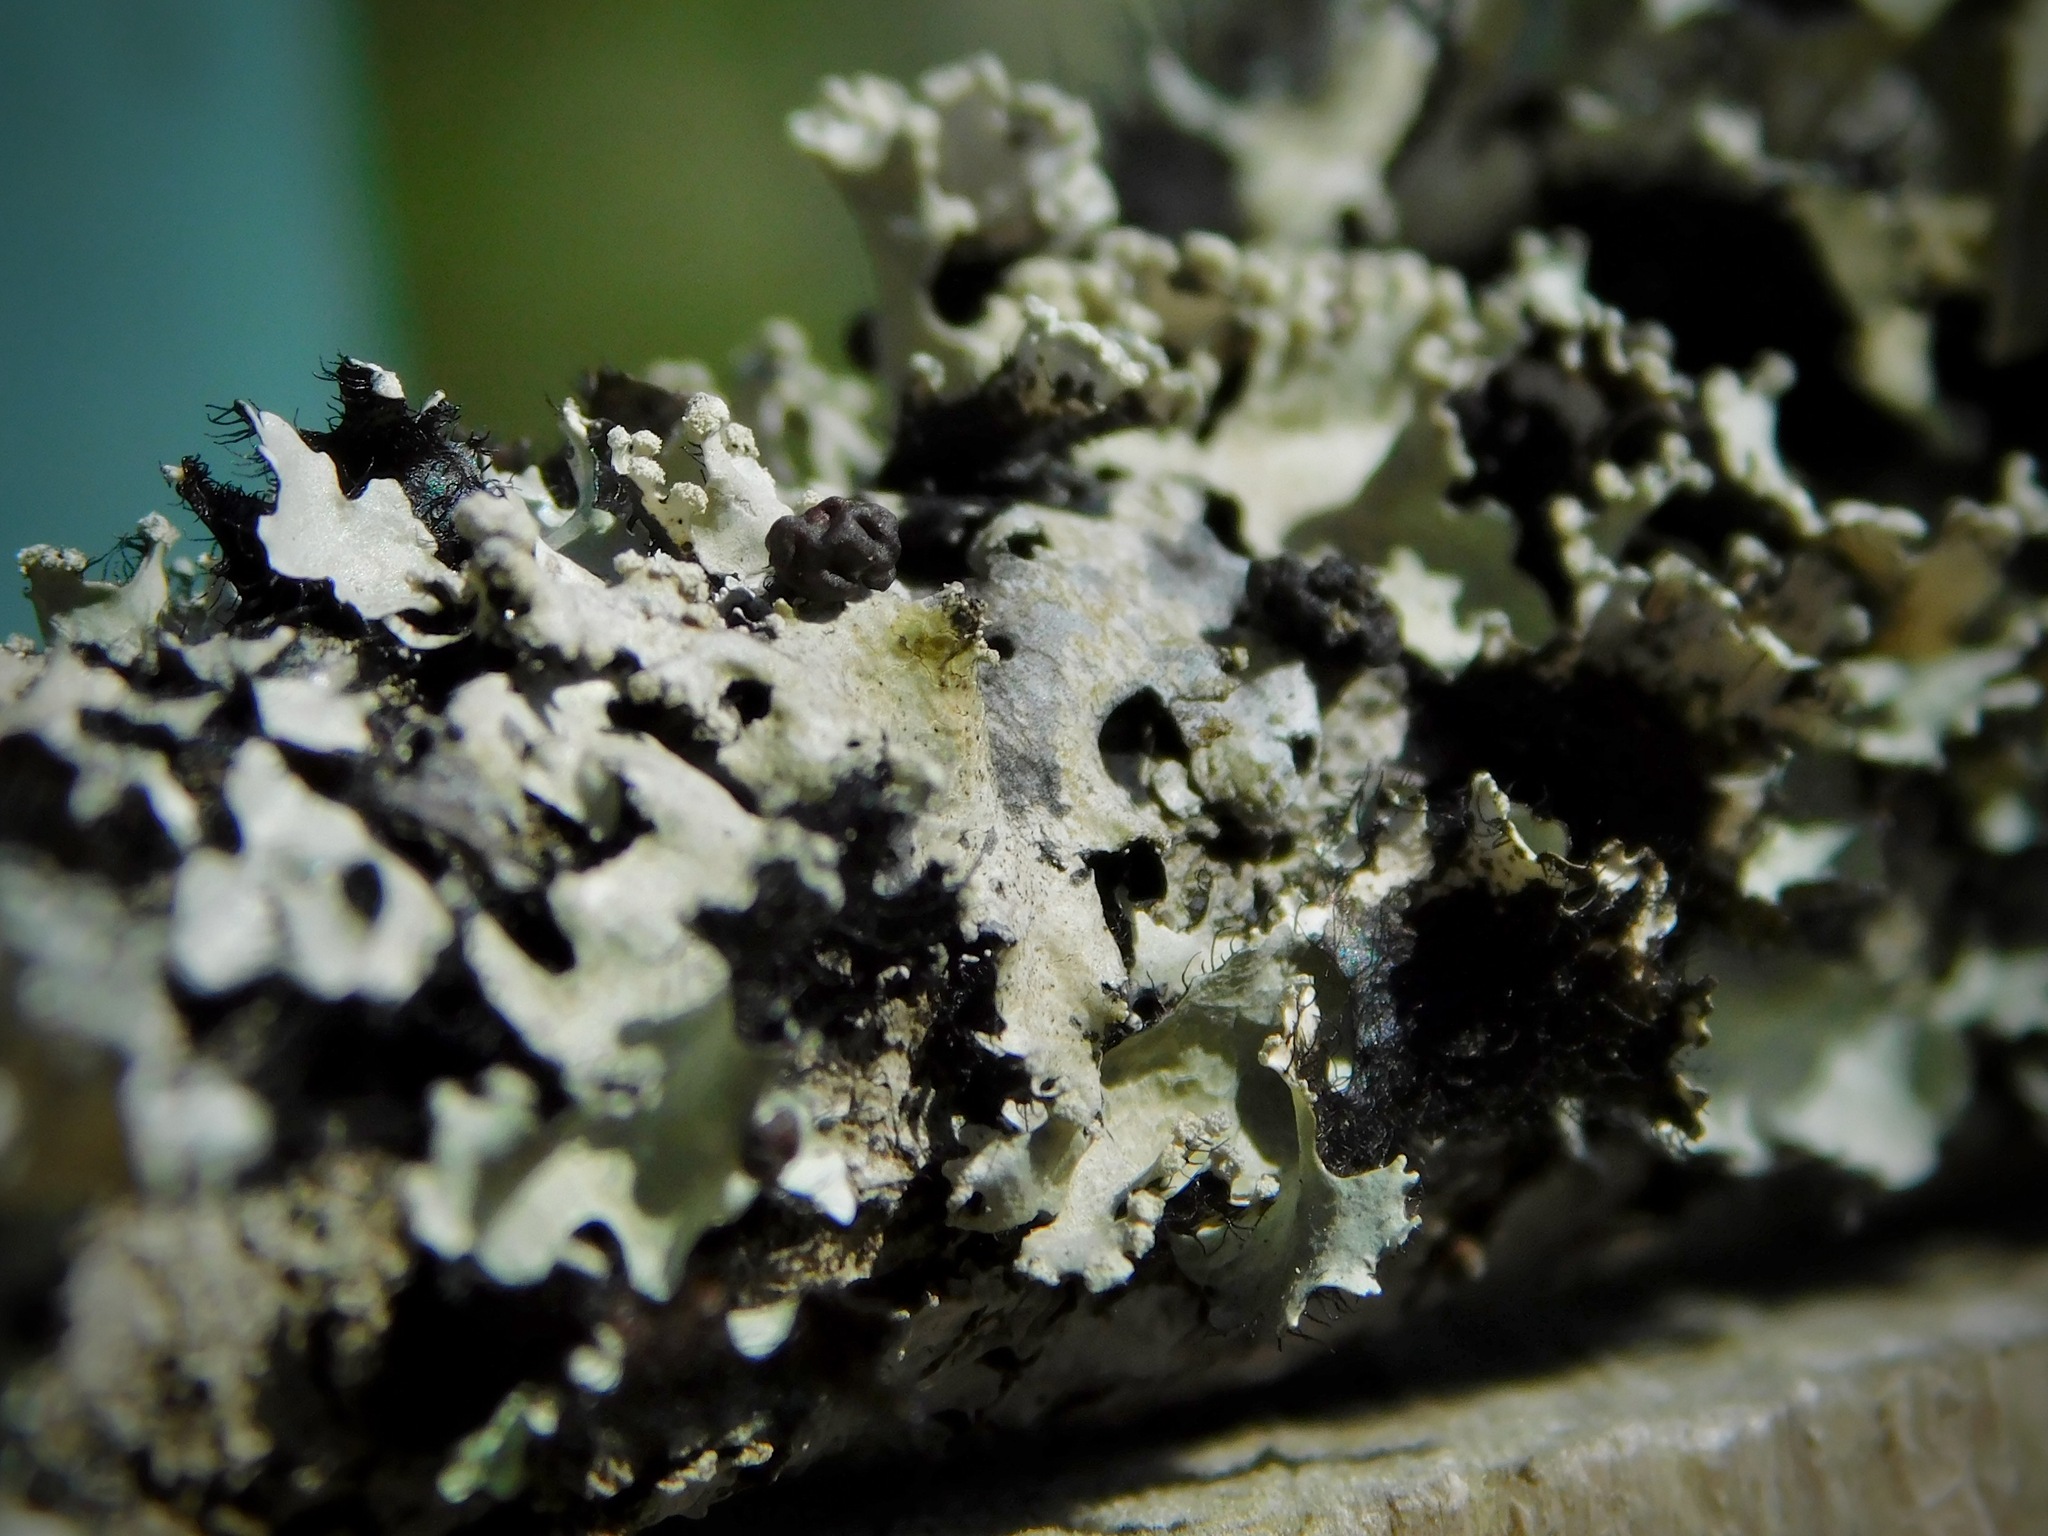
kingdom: Fungi
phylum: Basidiomycota
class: Tremellomycetes
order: Tremellales
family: Tremellaceae
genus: Tremella
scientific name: Tremella parmeliarum
